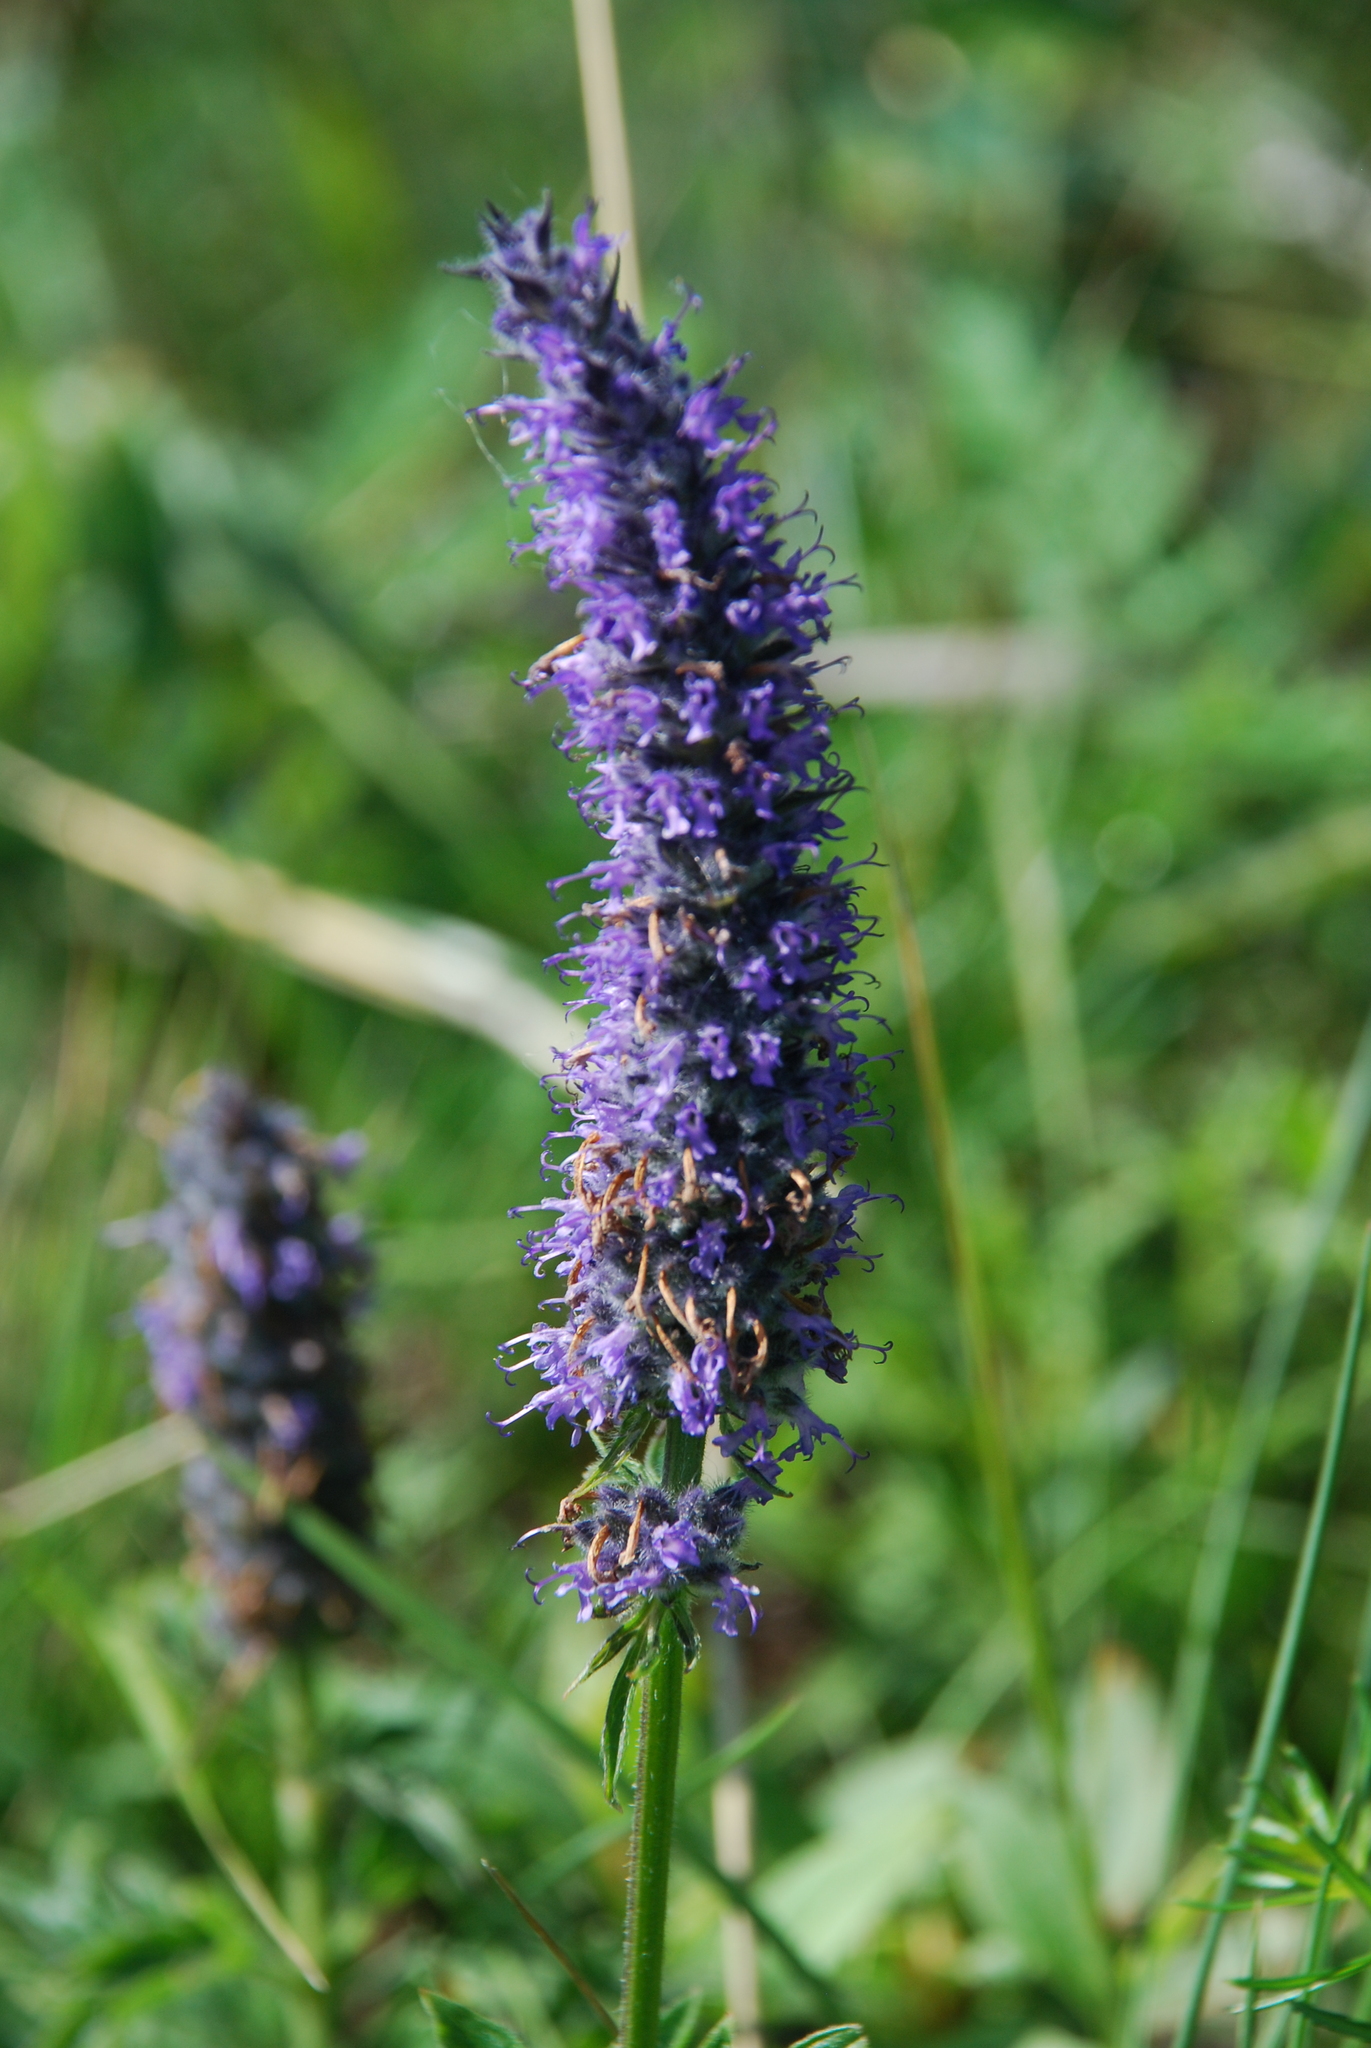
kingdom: Plantae
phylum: Tracheophyta
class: Magnoliopsida
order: Lamiales
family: Lamiaceae
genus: Nepeta
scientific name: Nepeta multifida
